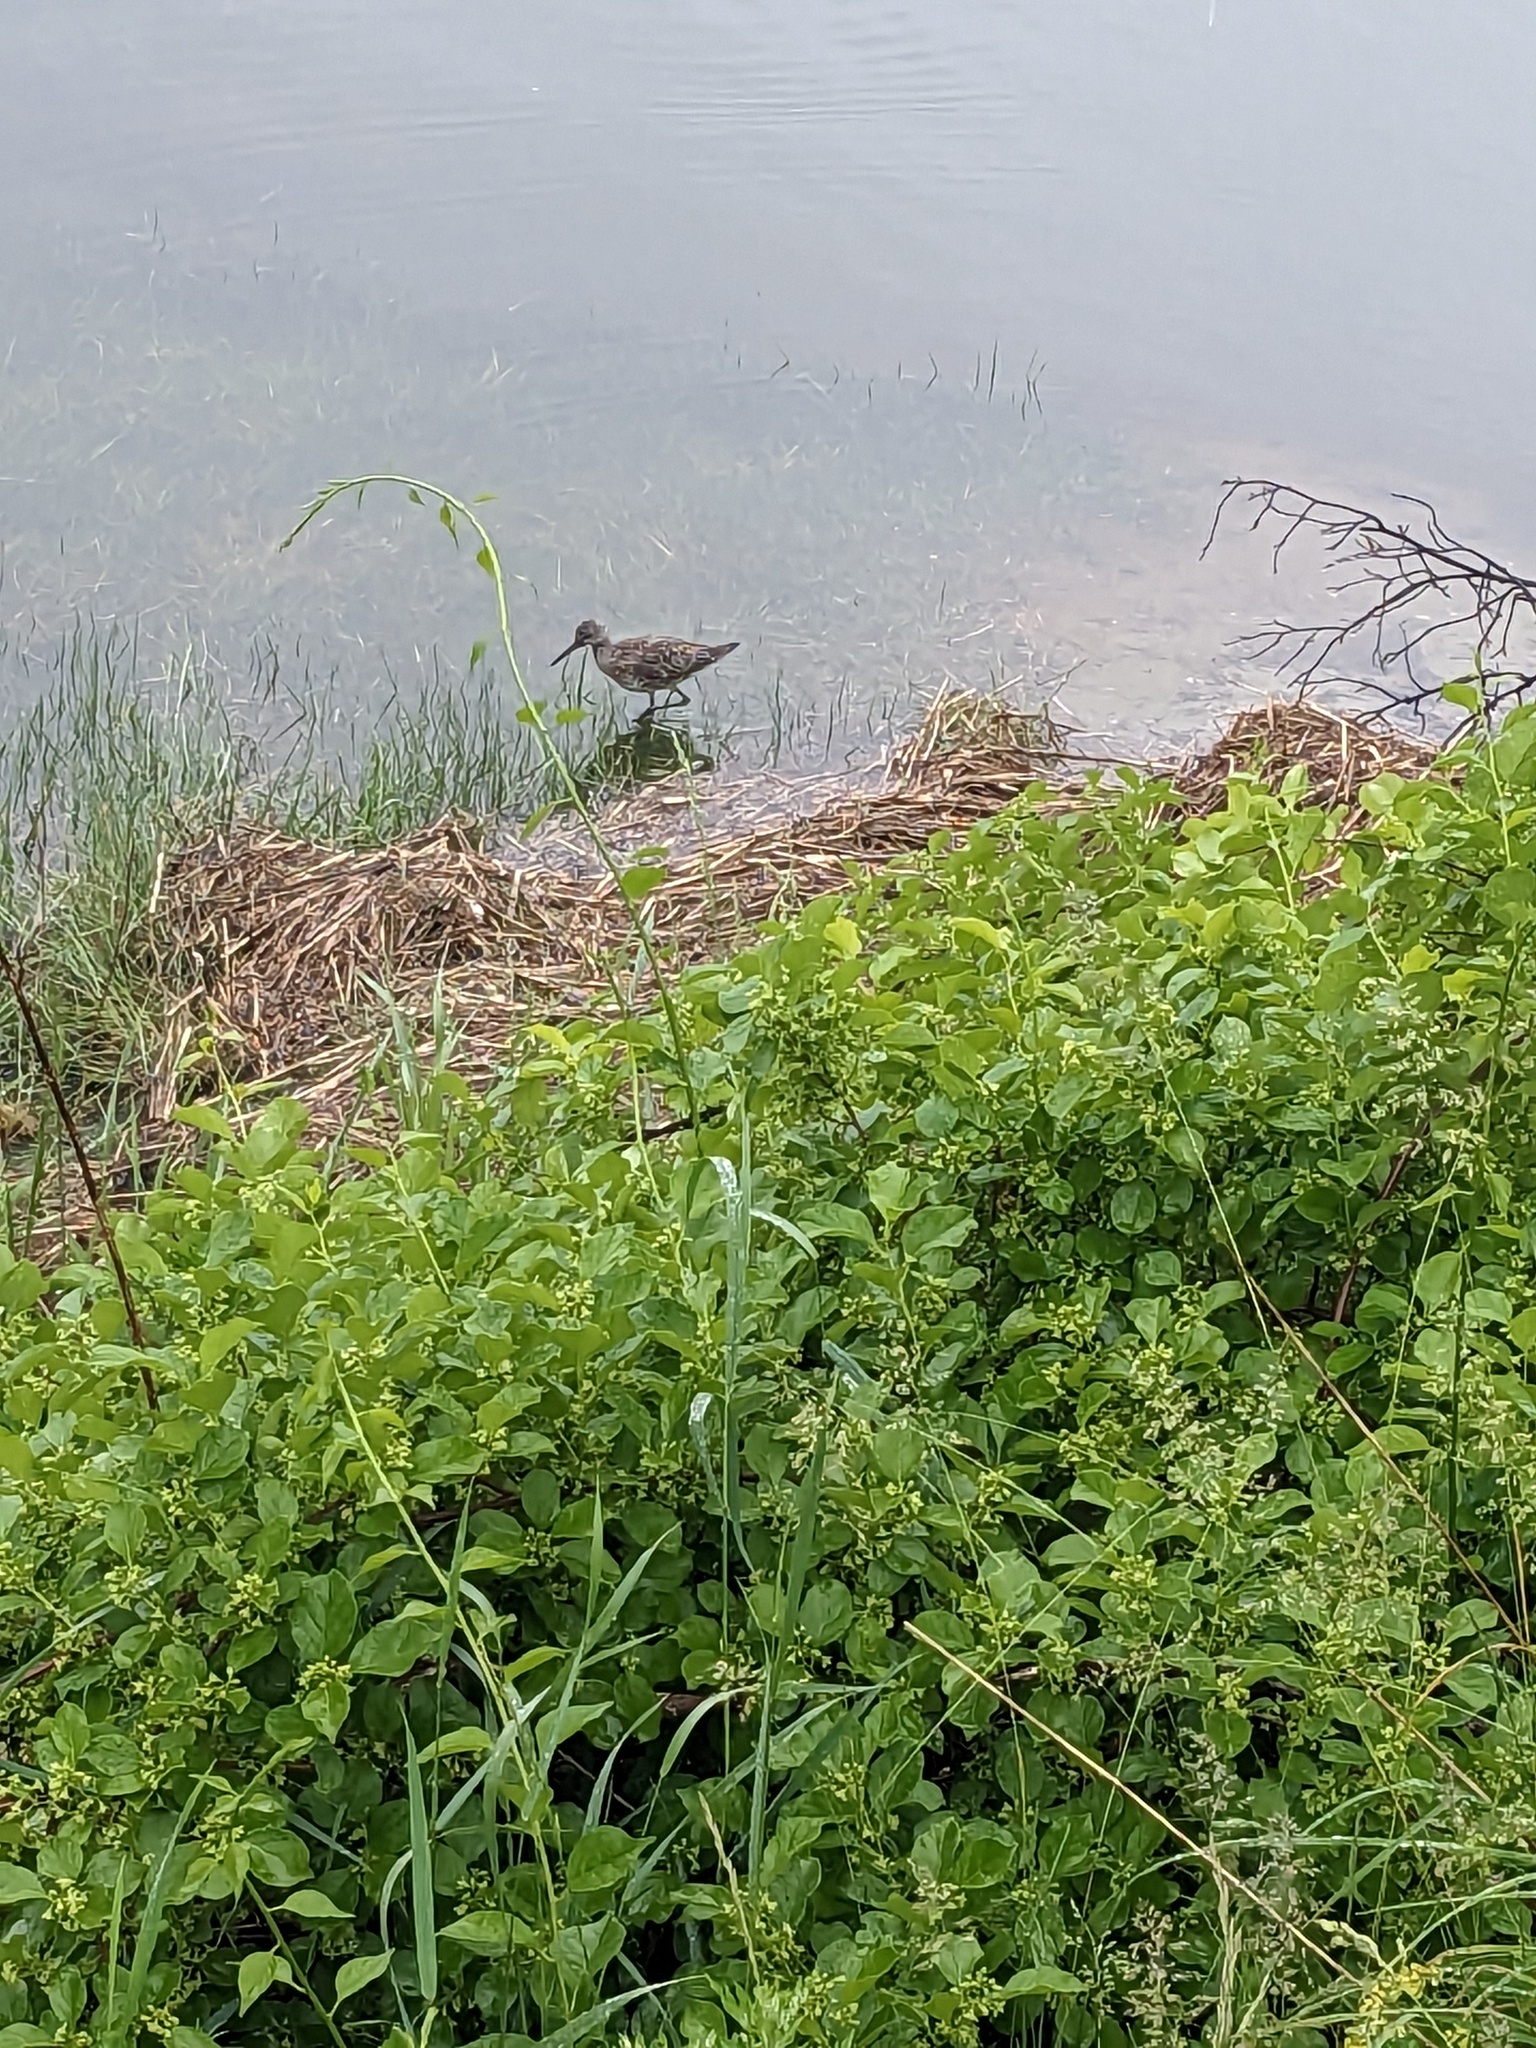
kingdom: Animalia
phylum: Chordata
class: Aves
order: Charadriiformes
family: Scolopacidae
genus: Tringa
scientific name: Tringa semipalmata
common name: Willet
